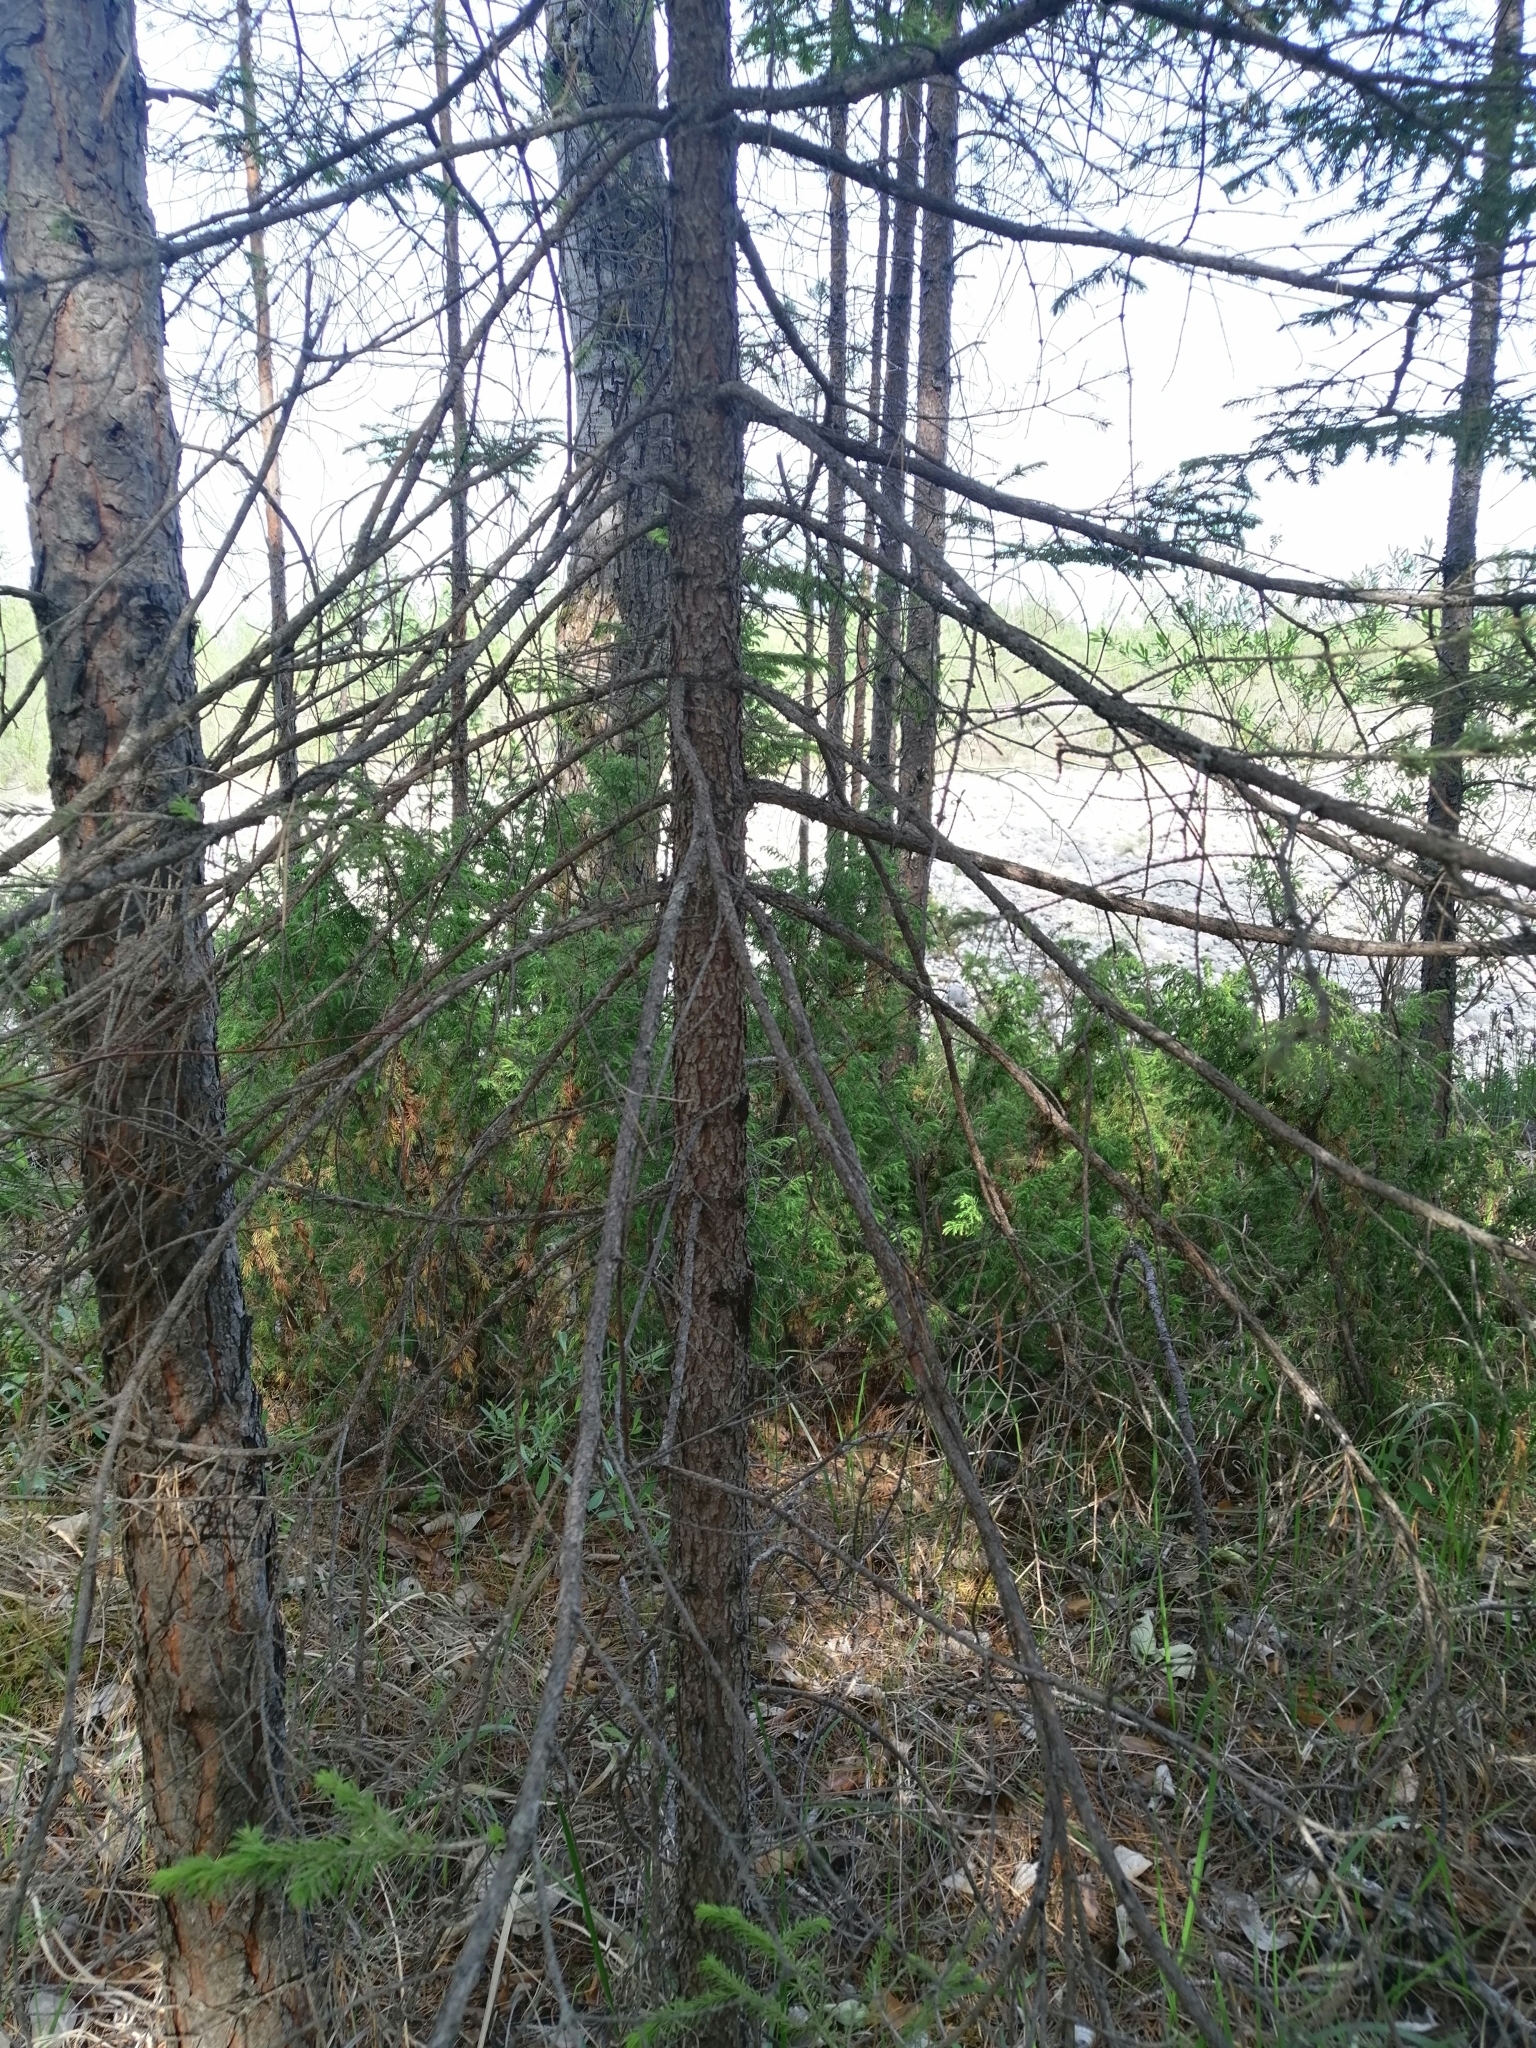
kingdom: Plantae
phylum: Tracheophyta
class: Pinopsida
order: Pinales
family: Pinaceae
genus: Picea
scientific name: Picea obovata
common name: Siberian spruce
